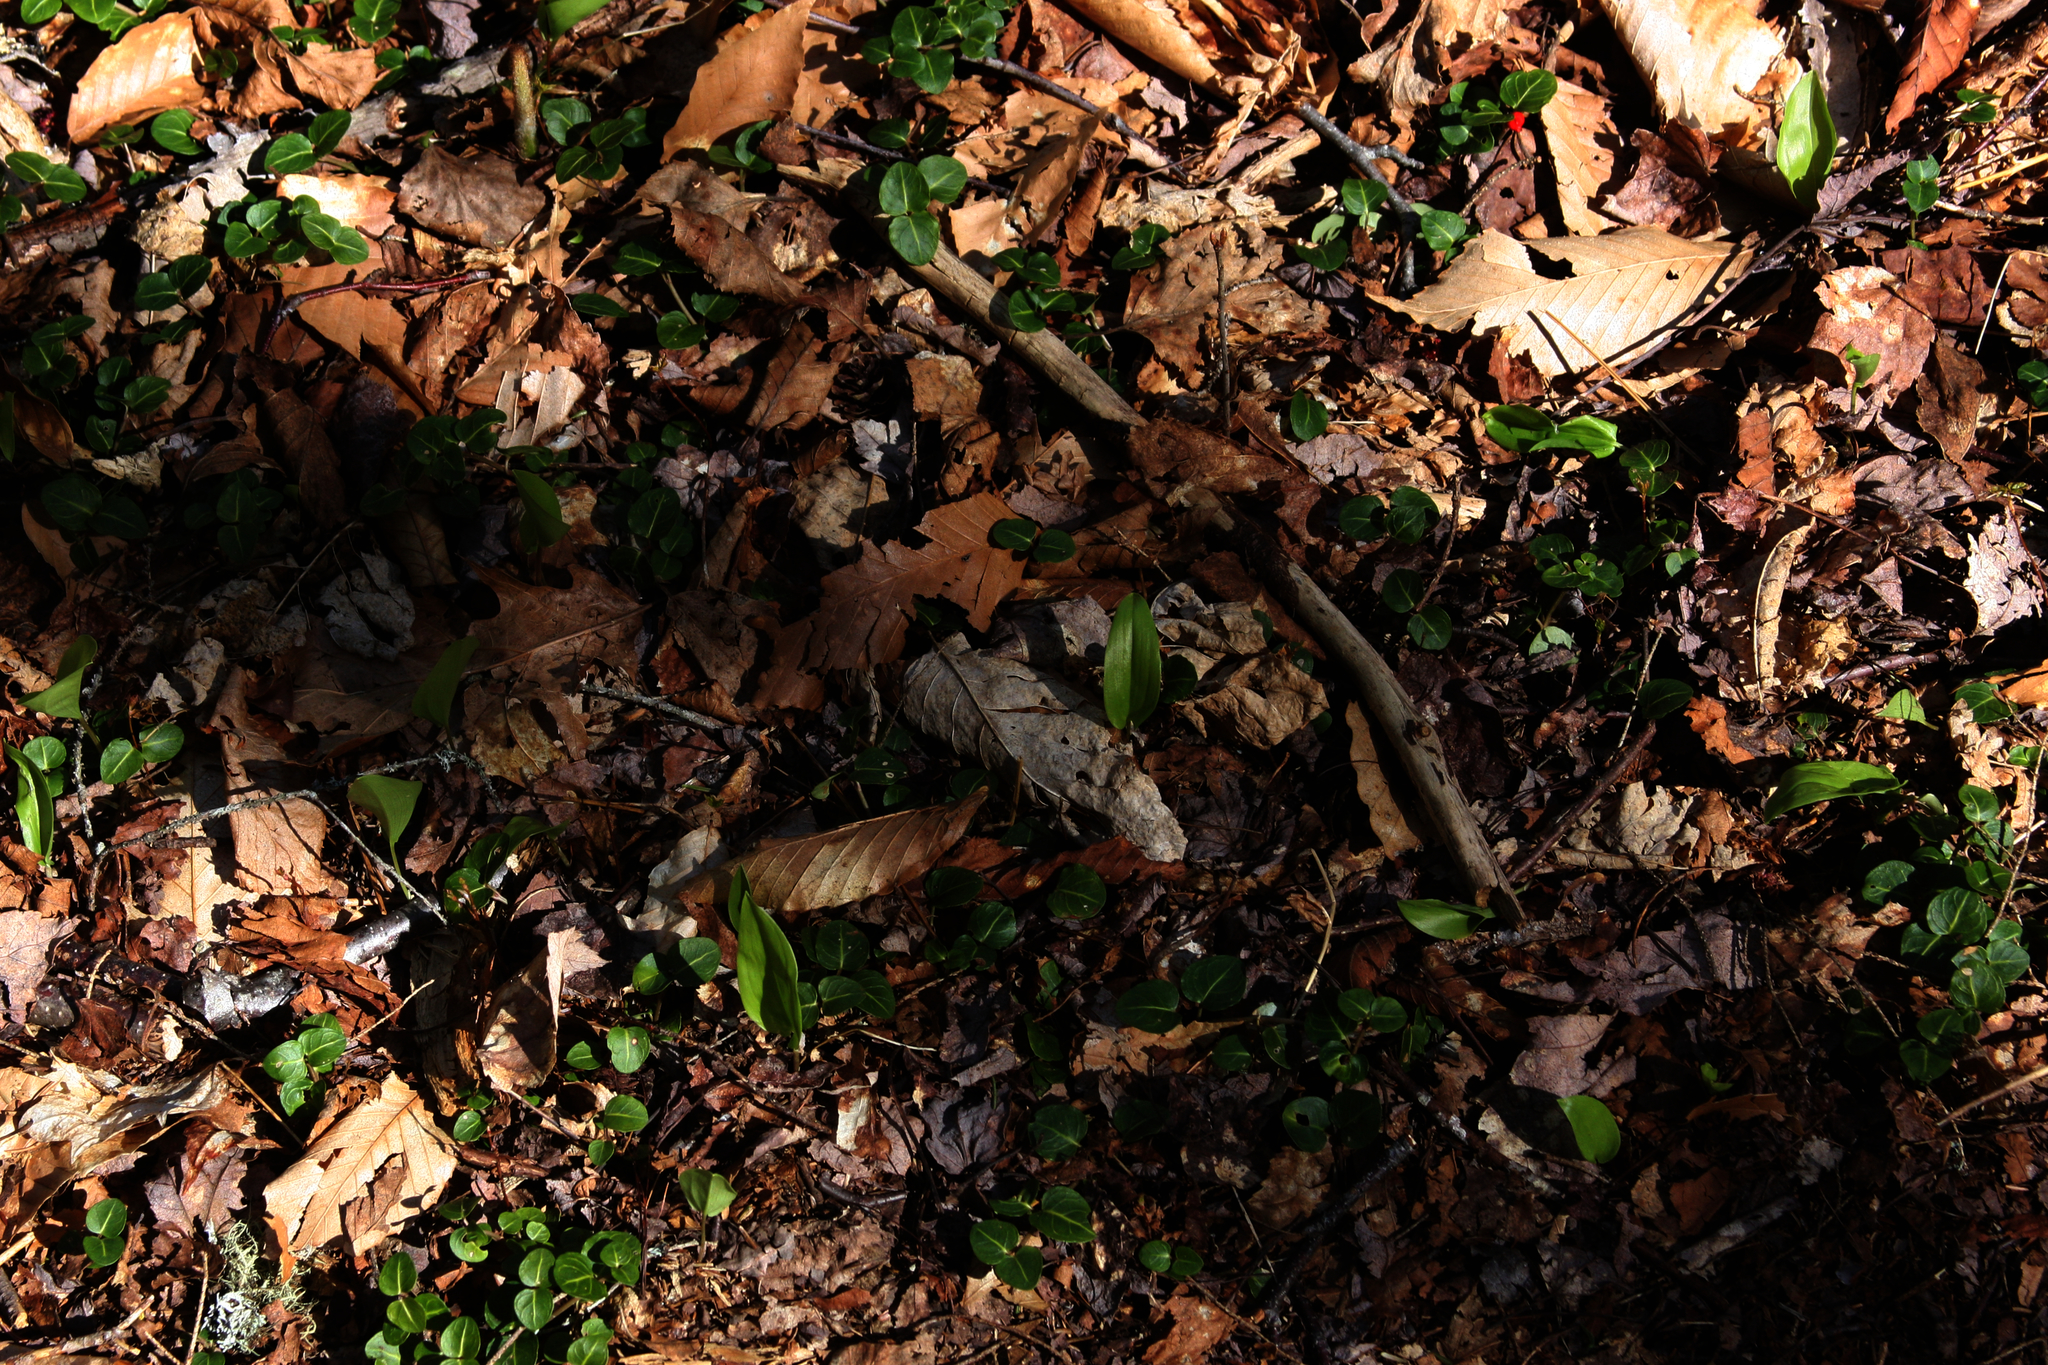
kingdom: Plantae
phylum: Tracheophyta
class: Liliopsida
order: Asparagales
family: Asparagaceae
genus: Maianthemum
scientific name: Maianthemum canadense
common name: False lily-of-the-valley
